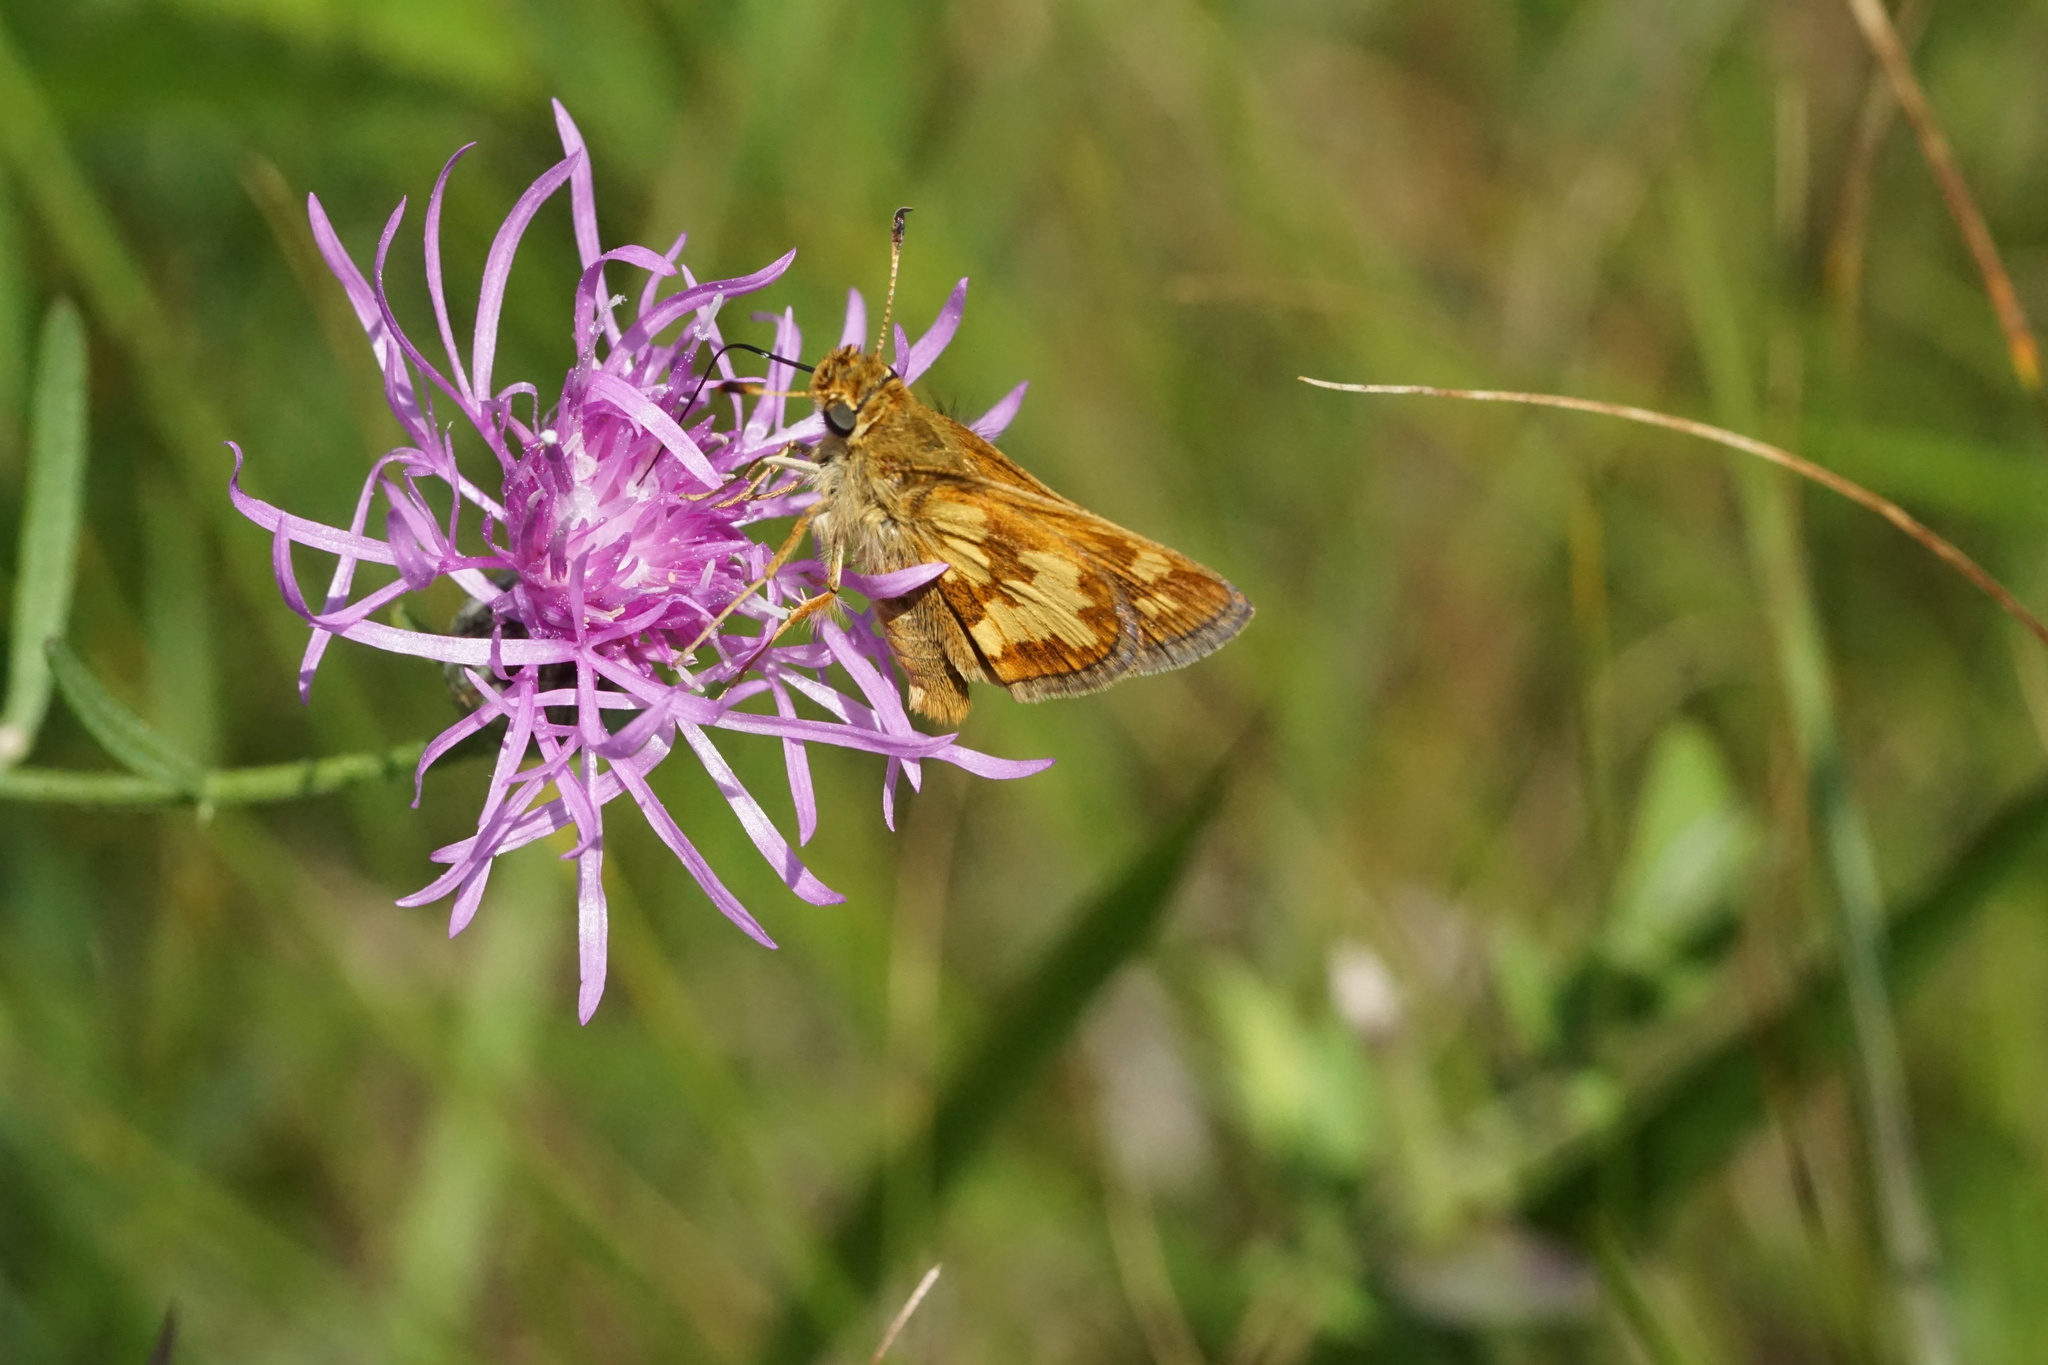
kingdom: Animalia
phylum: Arthropoda
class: Insecta
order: Lepidoptera
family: Hesperiidae
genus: Polites
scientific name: Polites coras
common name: Peck's skipper
